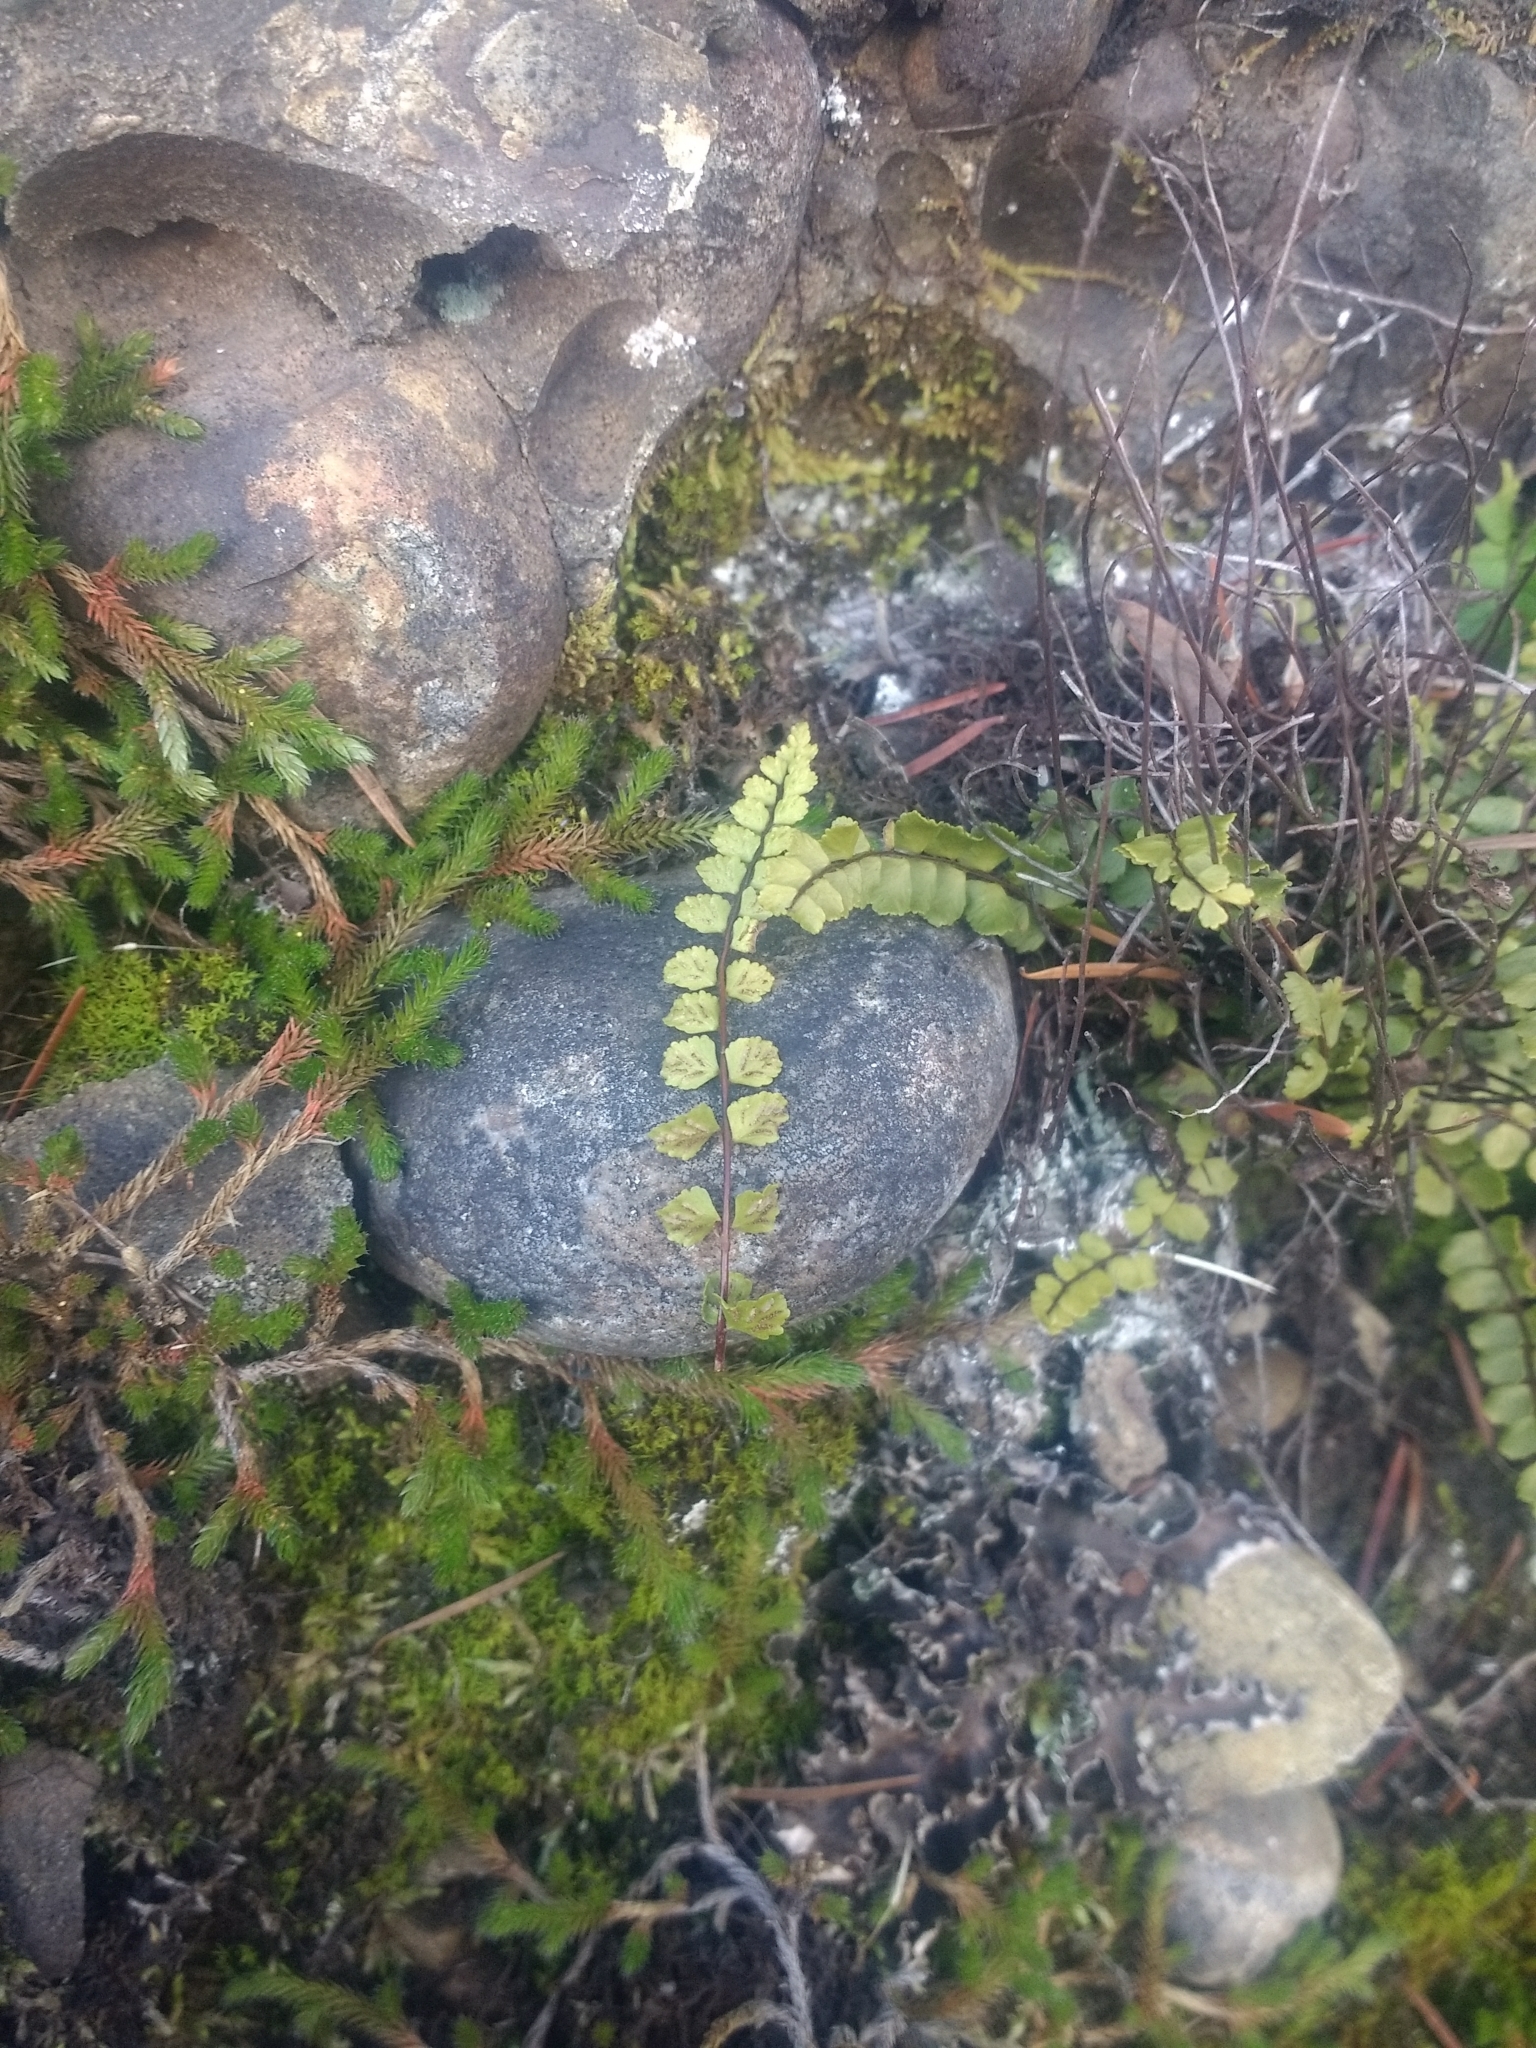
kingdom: Plantae
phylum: Tracheophyta
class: Polypodiopsida
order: Polypodiales
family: Aspleniaceae
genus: Asplenium
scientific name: Asplenium trichomanes
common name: Maidenhair spleenwort
